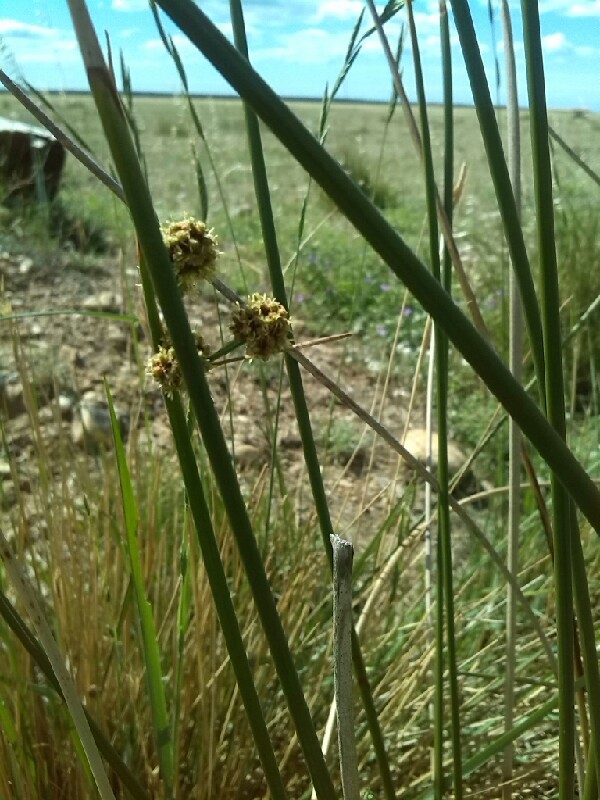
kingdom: Plantae
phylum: Tracheophyta
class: Liliopsida
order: Poales
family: Cyperaceae
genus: Scirpoides
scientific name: Scirpoides holoschoenus
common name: Round-headed club-rush
